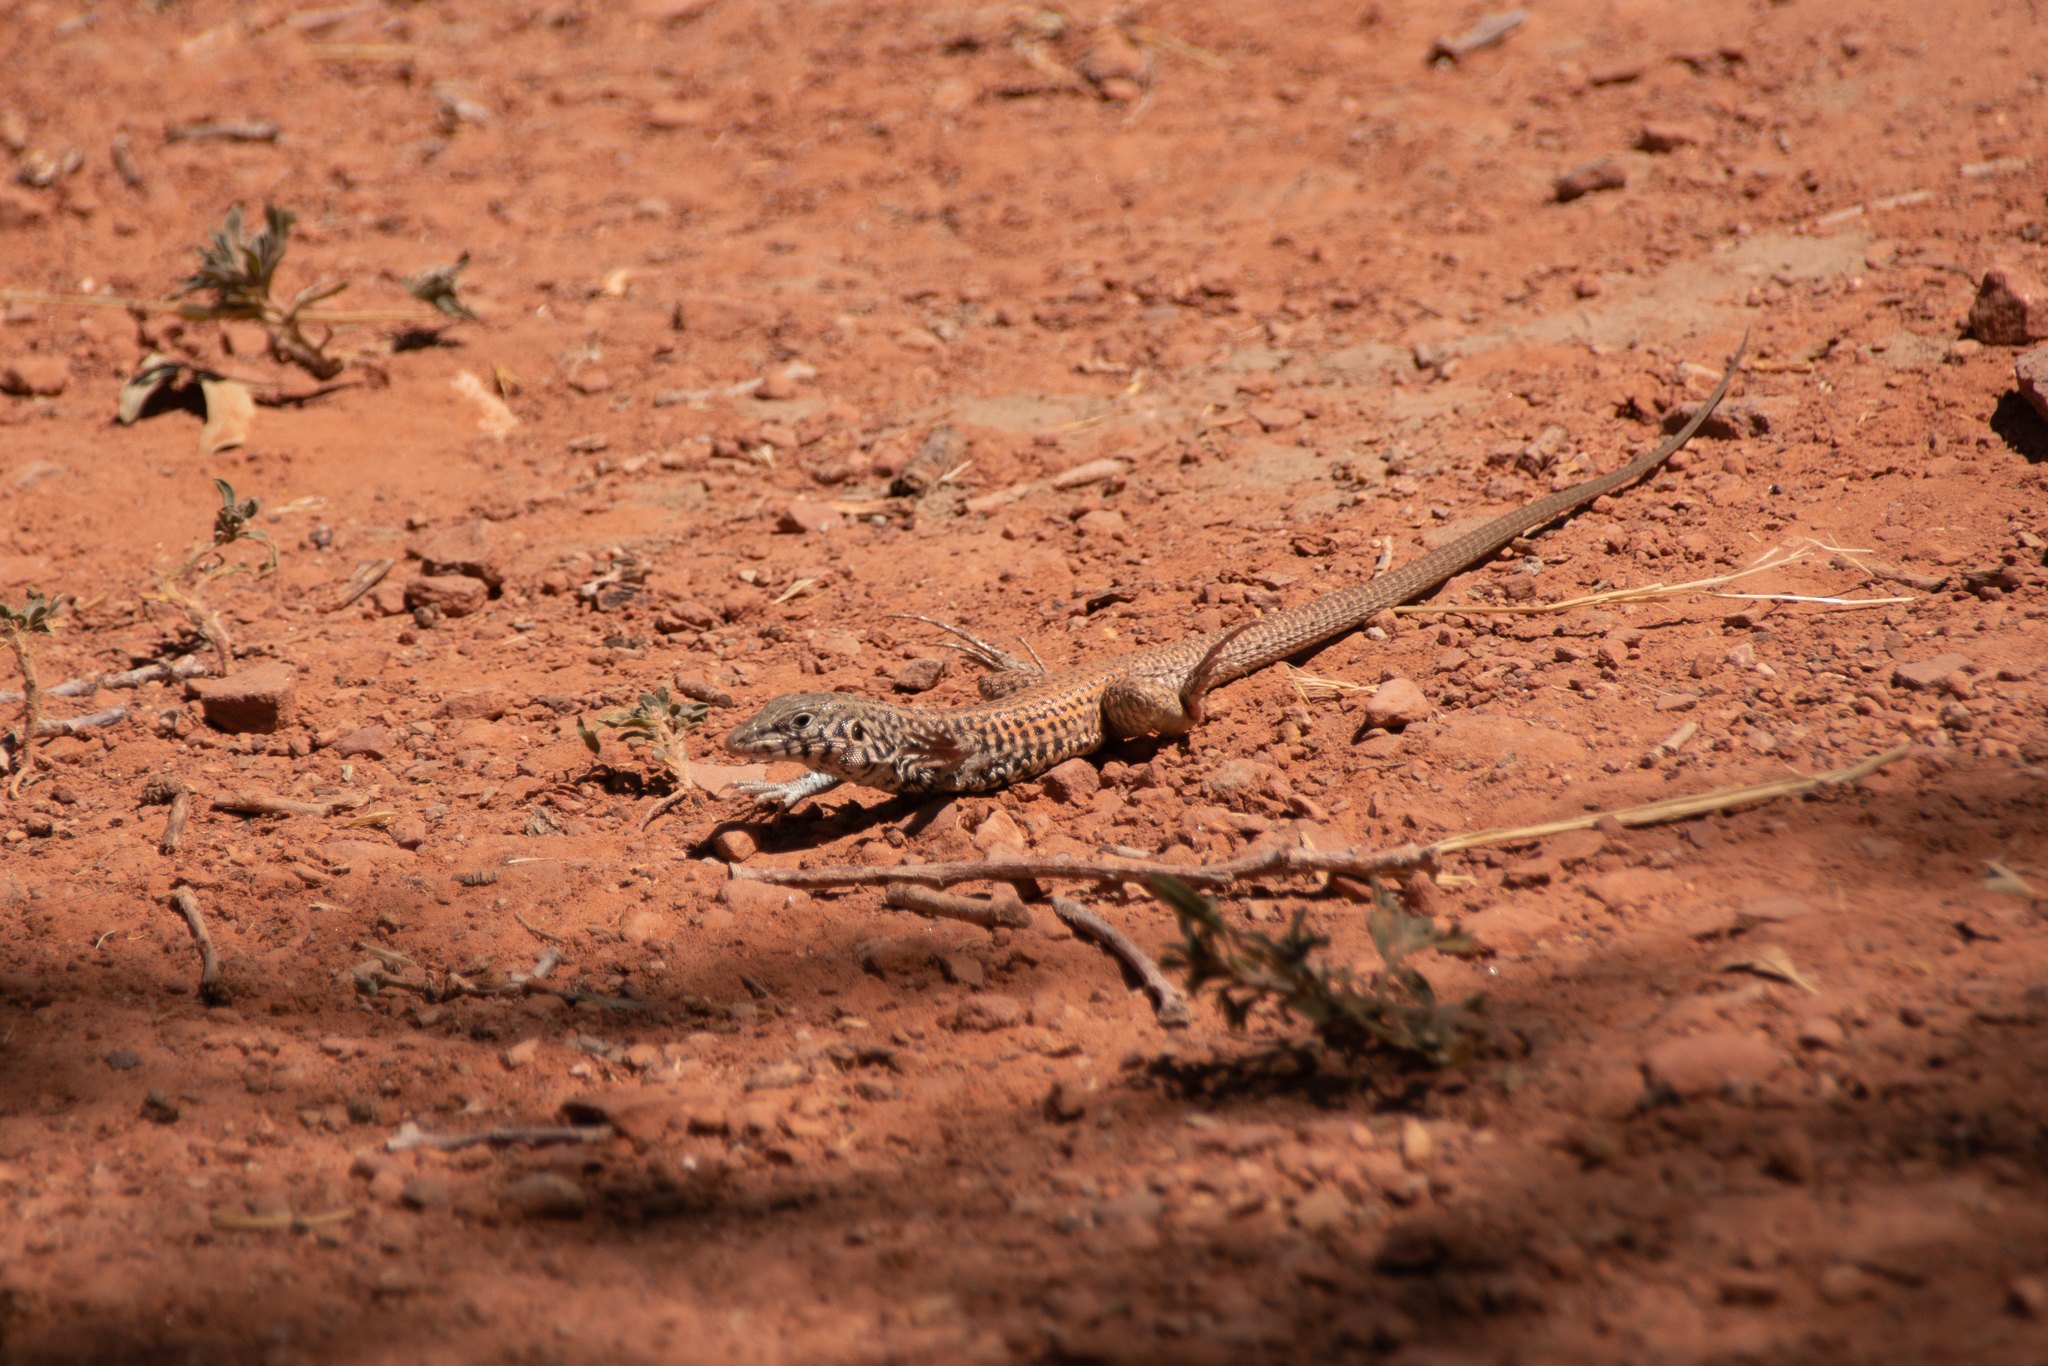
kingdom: Animalia
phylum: Chordata
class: Squamata
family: Teiidae
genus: Aspidoscelis
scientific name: Aspidoscelis tigris
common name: Tiger whiptail
